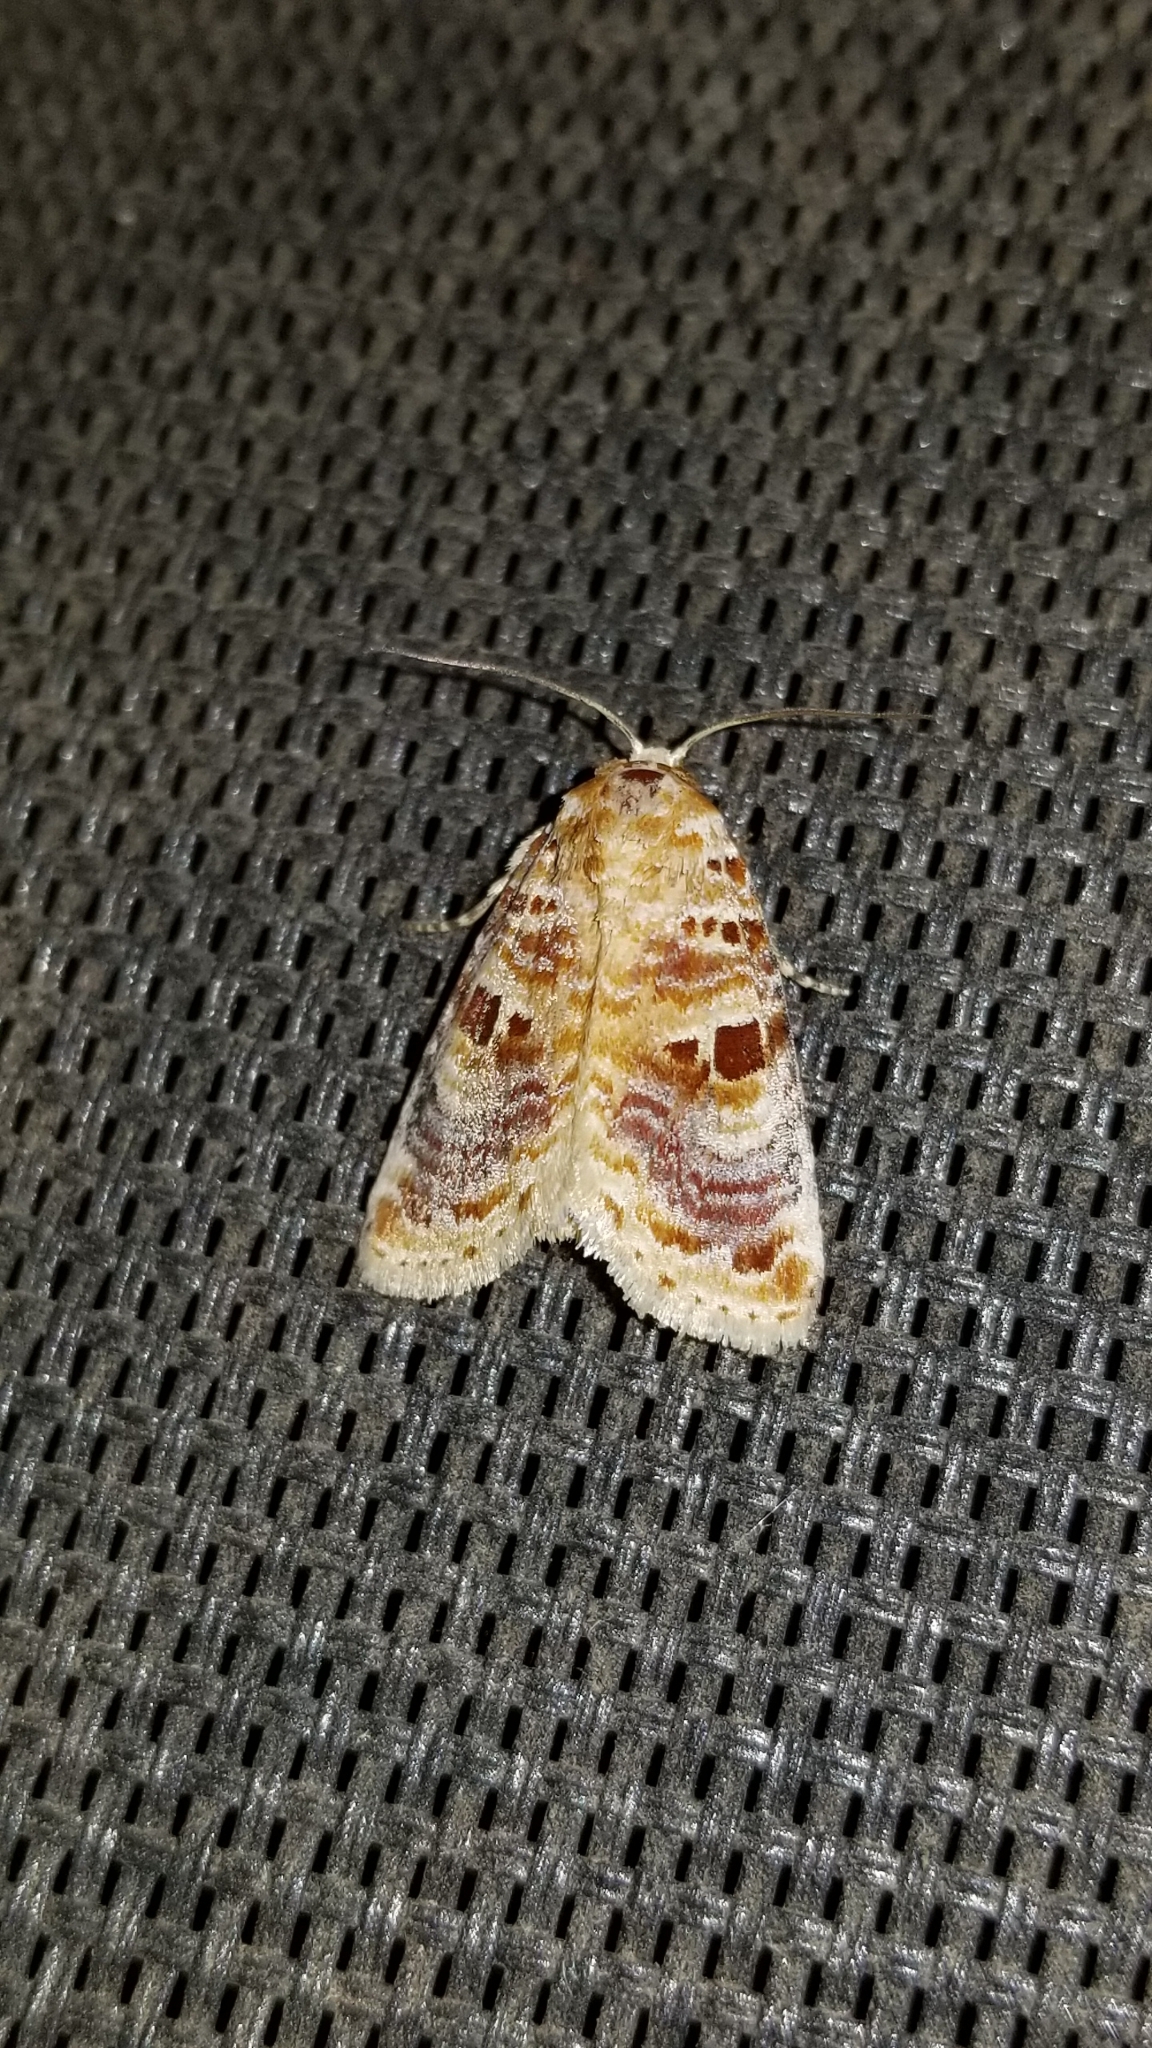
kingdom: Animalia
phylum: Arthropoda
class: Insecta
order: Lepidoptera
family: Noctuidae
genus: Diastema
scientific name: Diastema tigris
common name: Lantana moth
